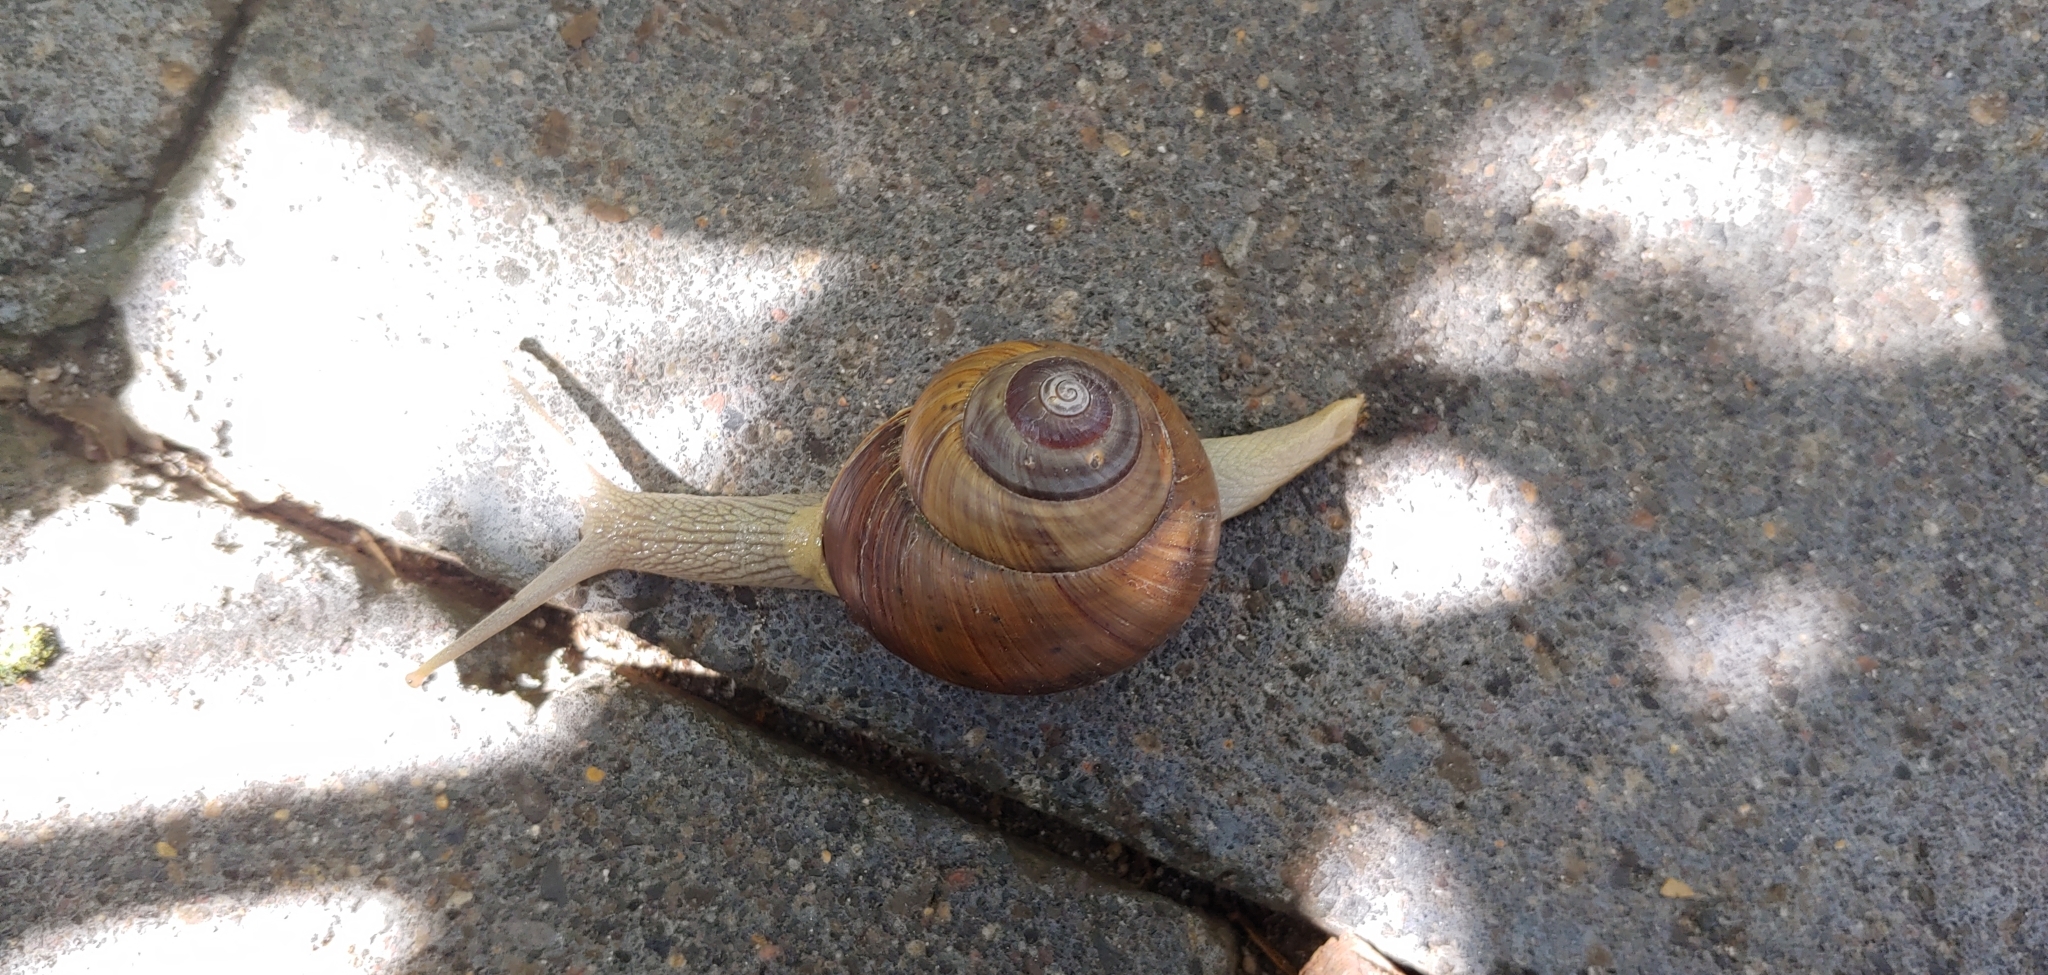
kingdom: Animalia
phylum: Mollusca
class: Gastropoda
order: Stylommatophora
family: Dyakiidae
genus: Asperitas
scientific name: Asperitas sparsa
